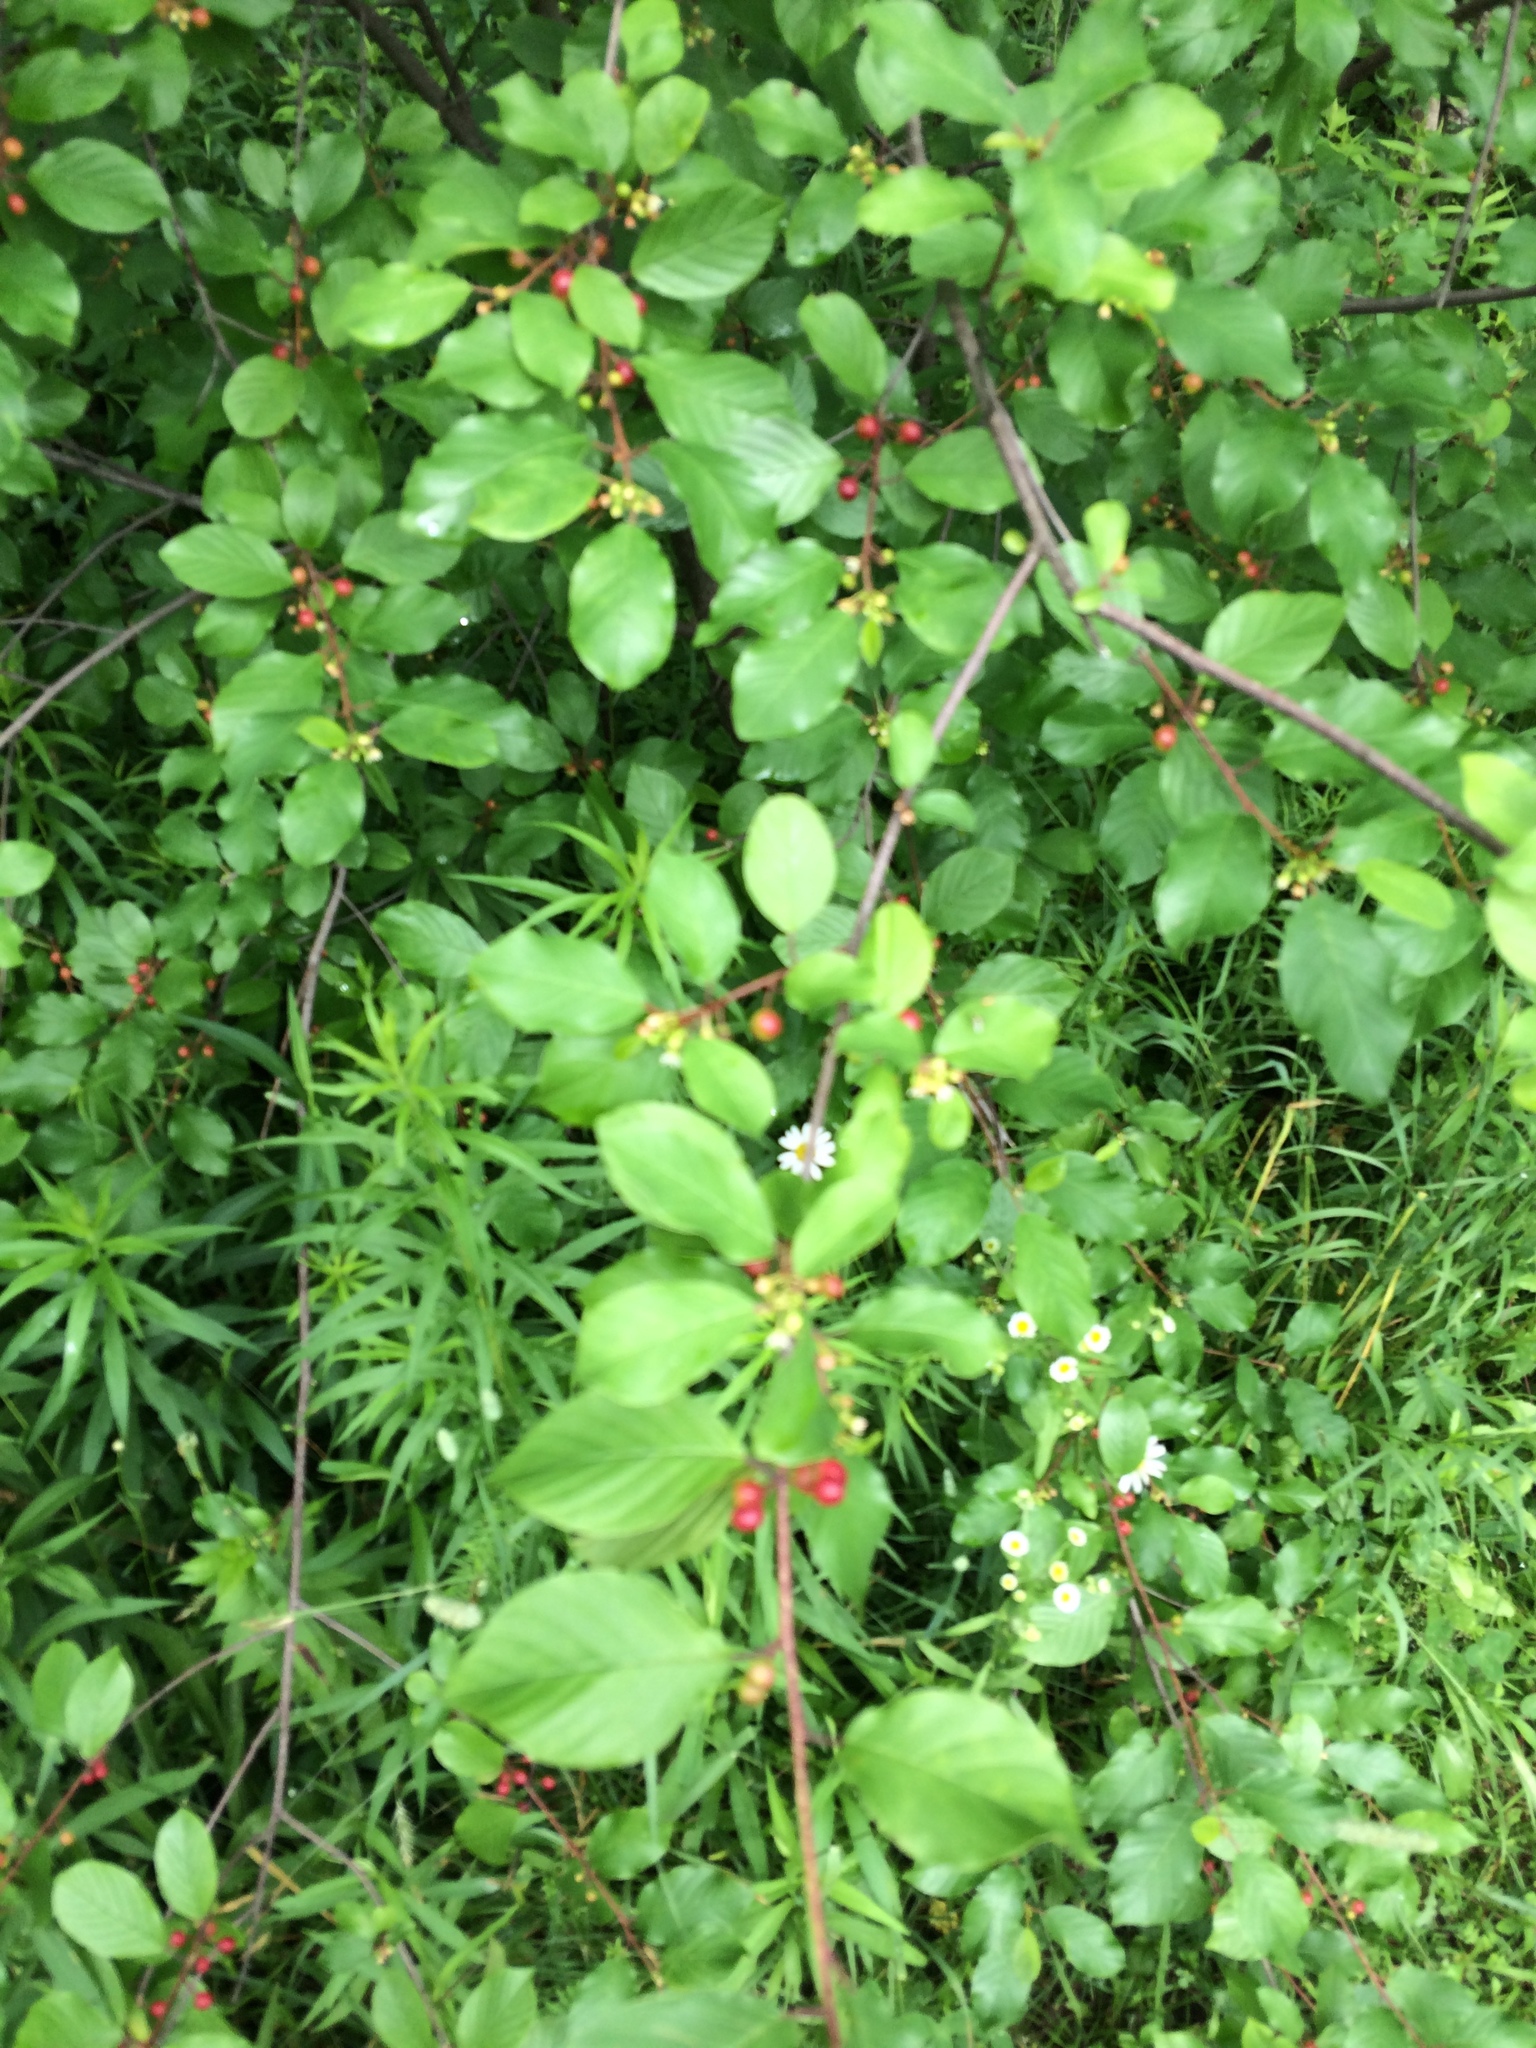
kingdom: Plantae
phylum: Tracheophyta
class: Magnoliopsida
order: Rosales
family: Rhamnaceae
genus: Frangula
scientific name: Frangula alnus
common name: Alder buckthorn
